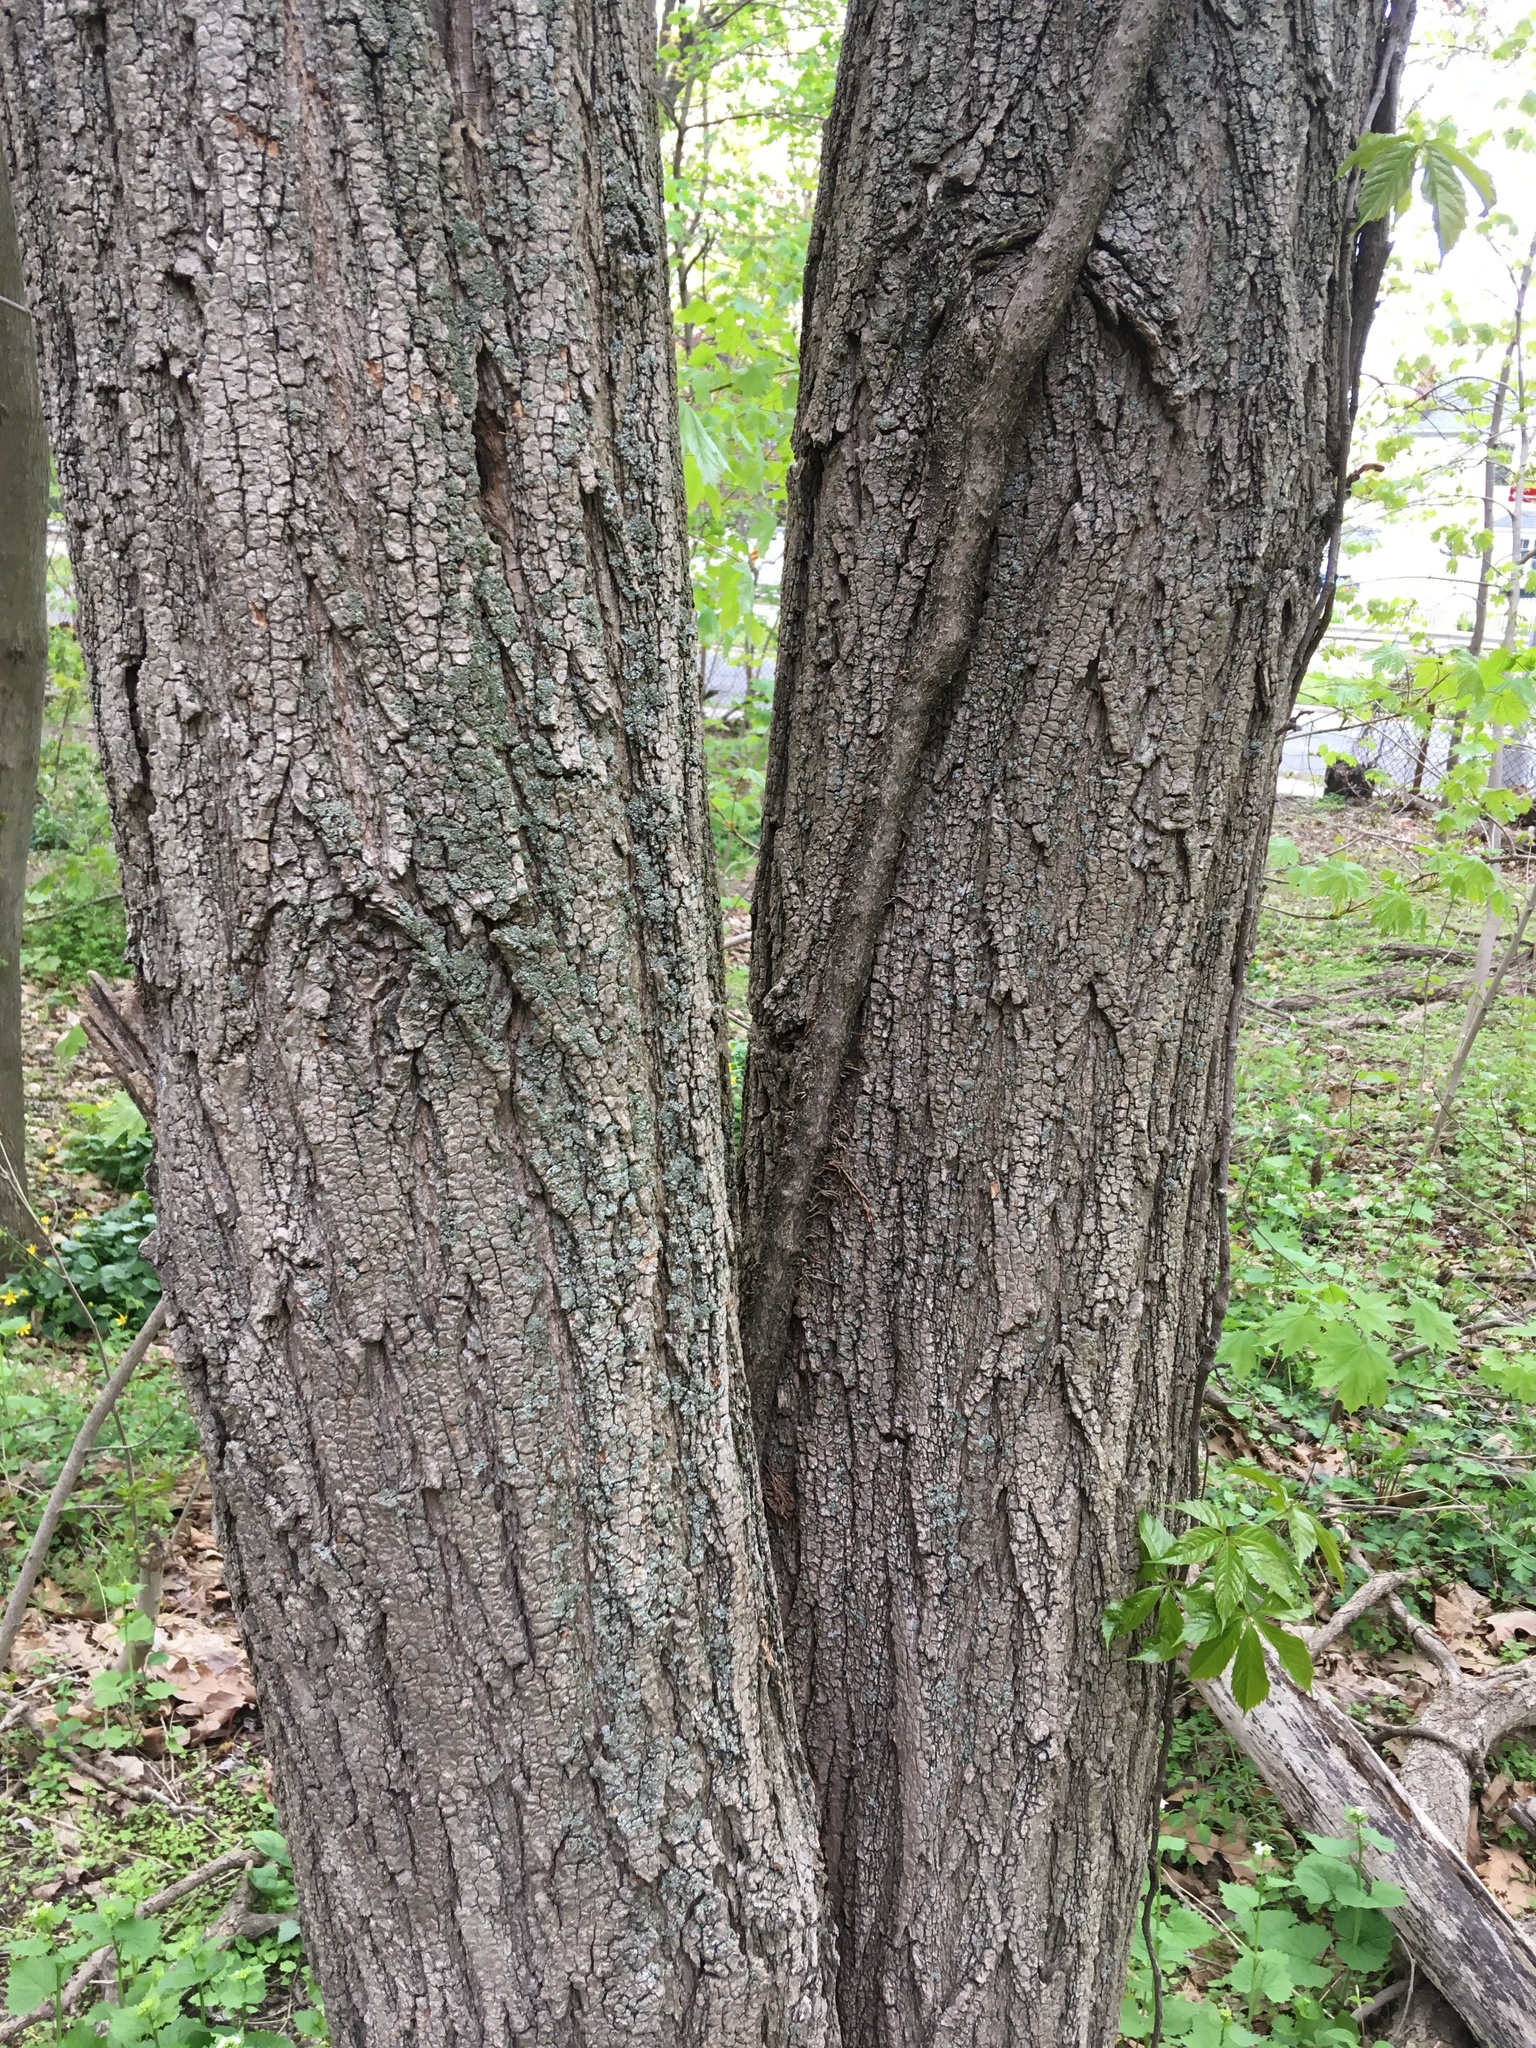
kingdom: Plantae
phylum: Tracheophyta
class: Magnoliopsida
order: Fabales
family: Fabaceae
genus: Robinia
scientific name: Robinia pseudoacacia
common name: Black locust
